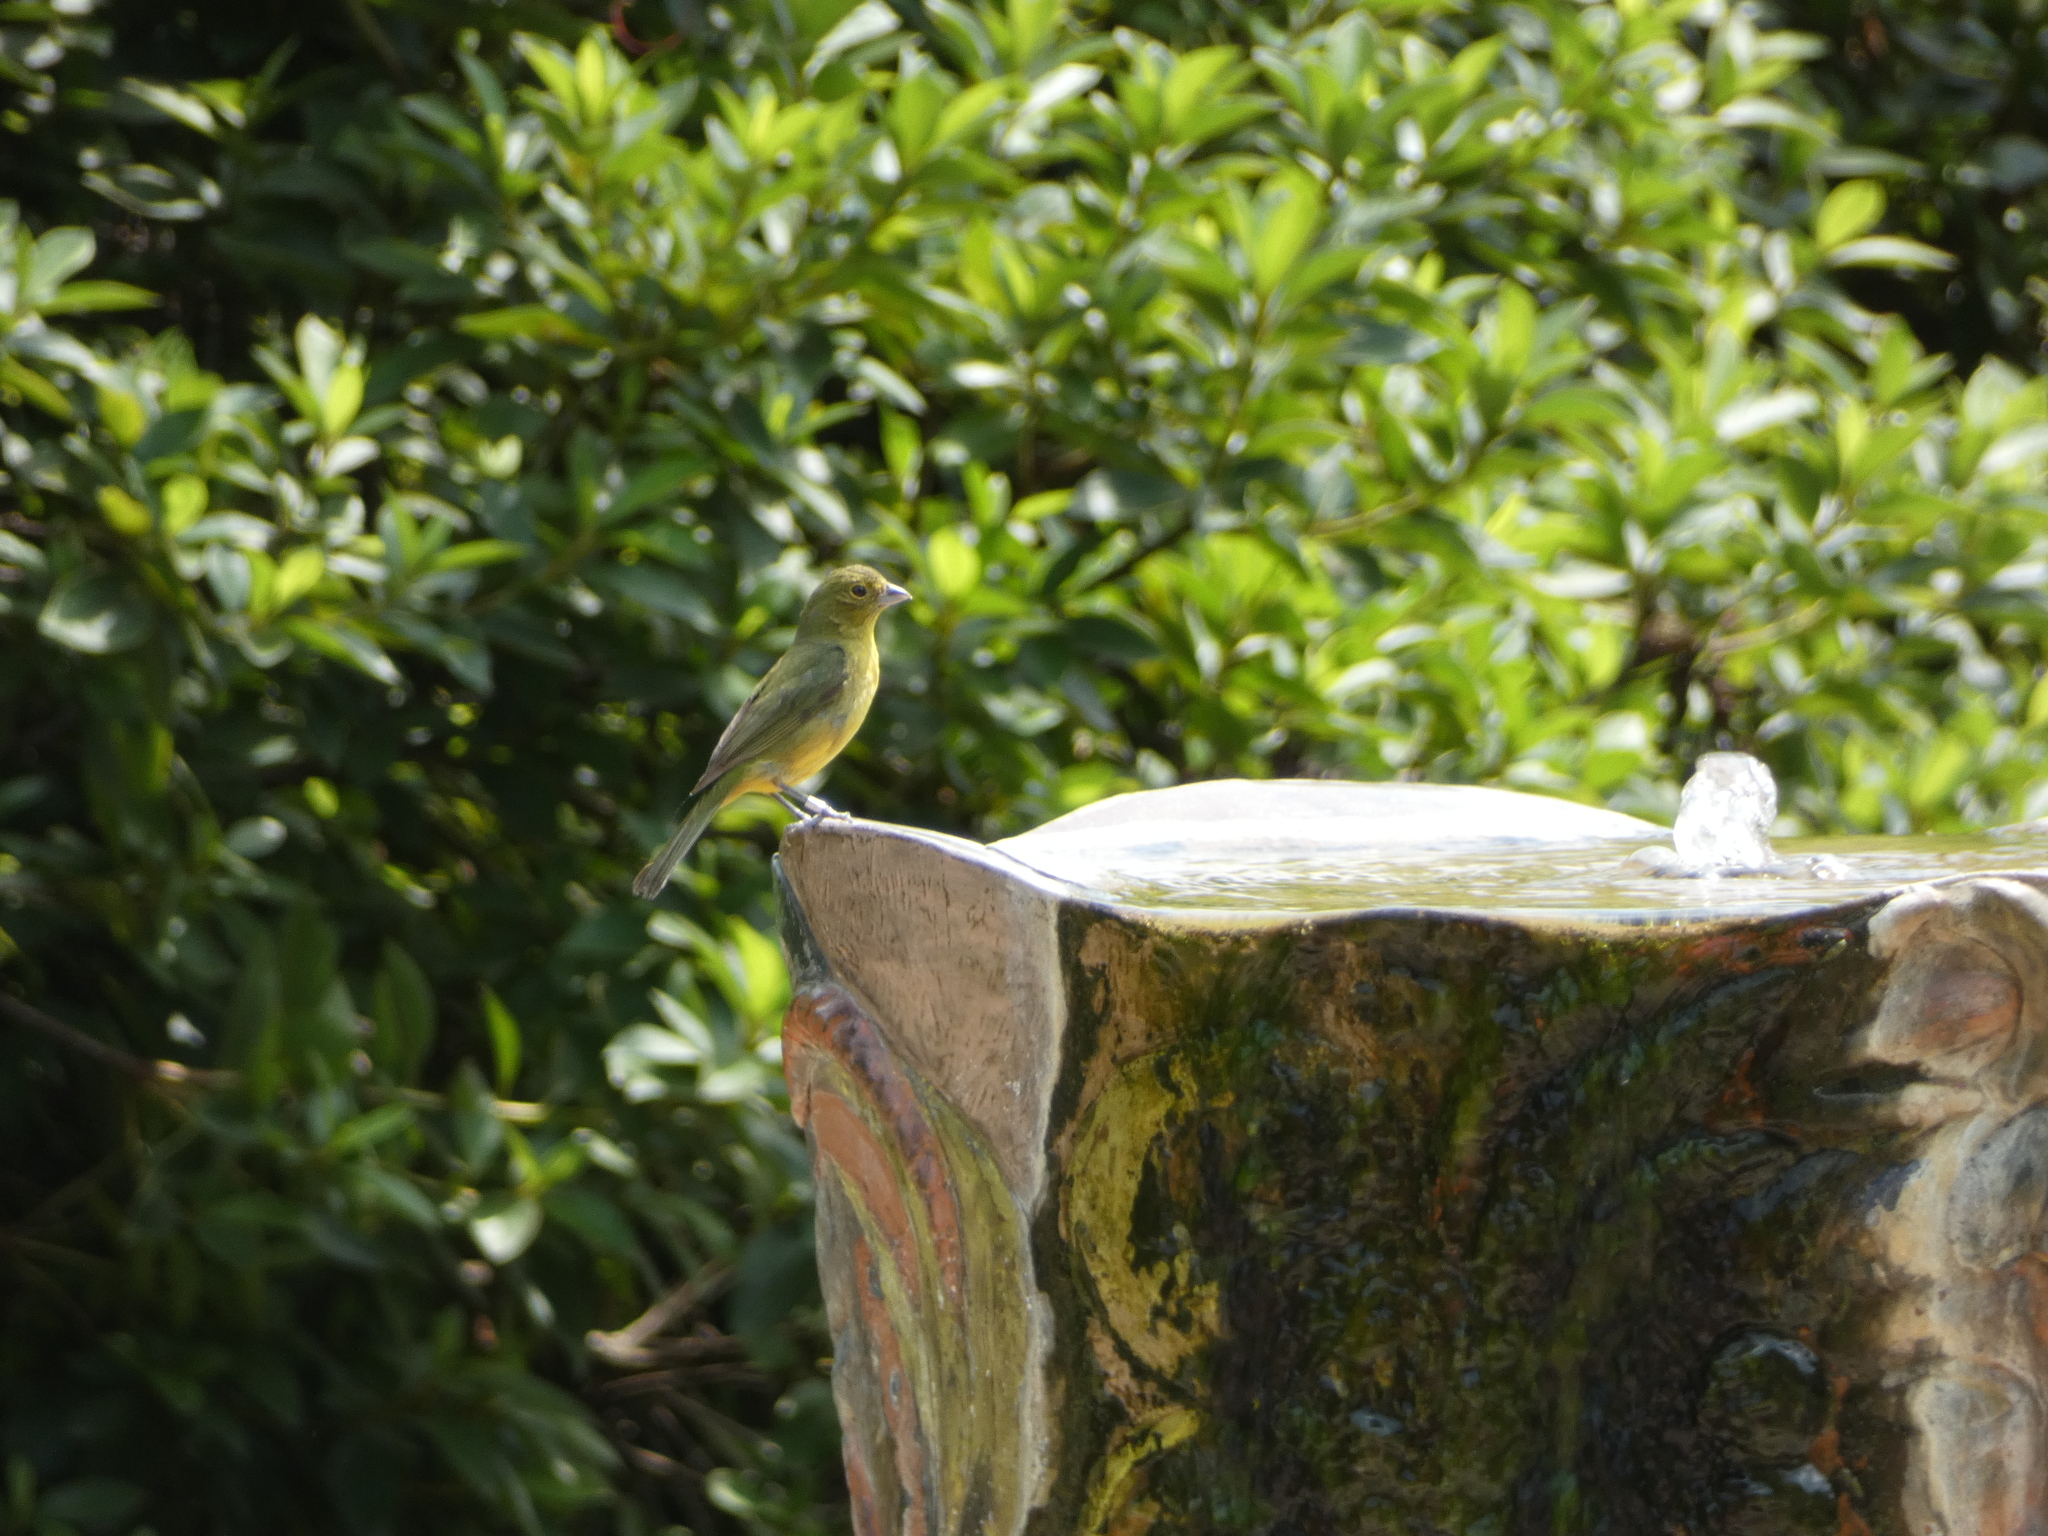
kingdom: Animalia
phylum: Chordata
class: Aves
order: Passeriformes
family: Cardinalidae
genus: Passerina
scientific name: Passerina ciris
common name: Painted bunting
